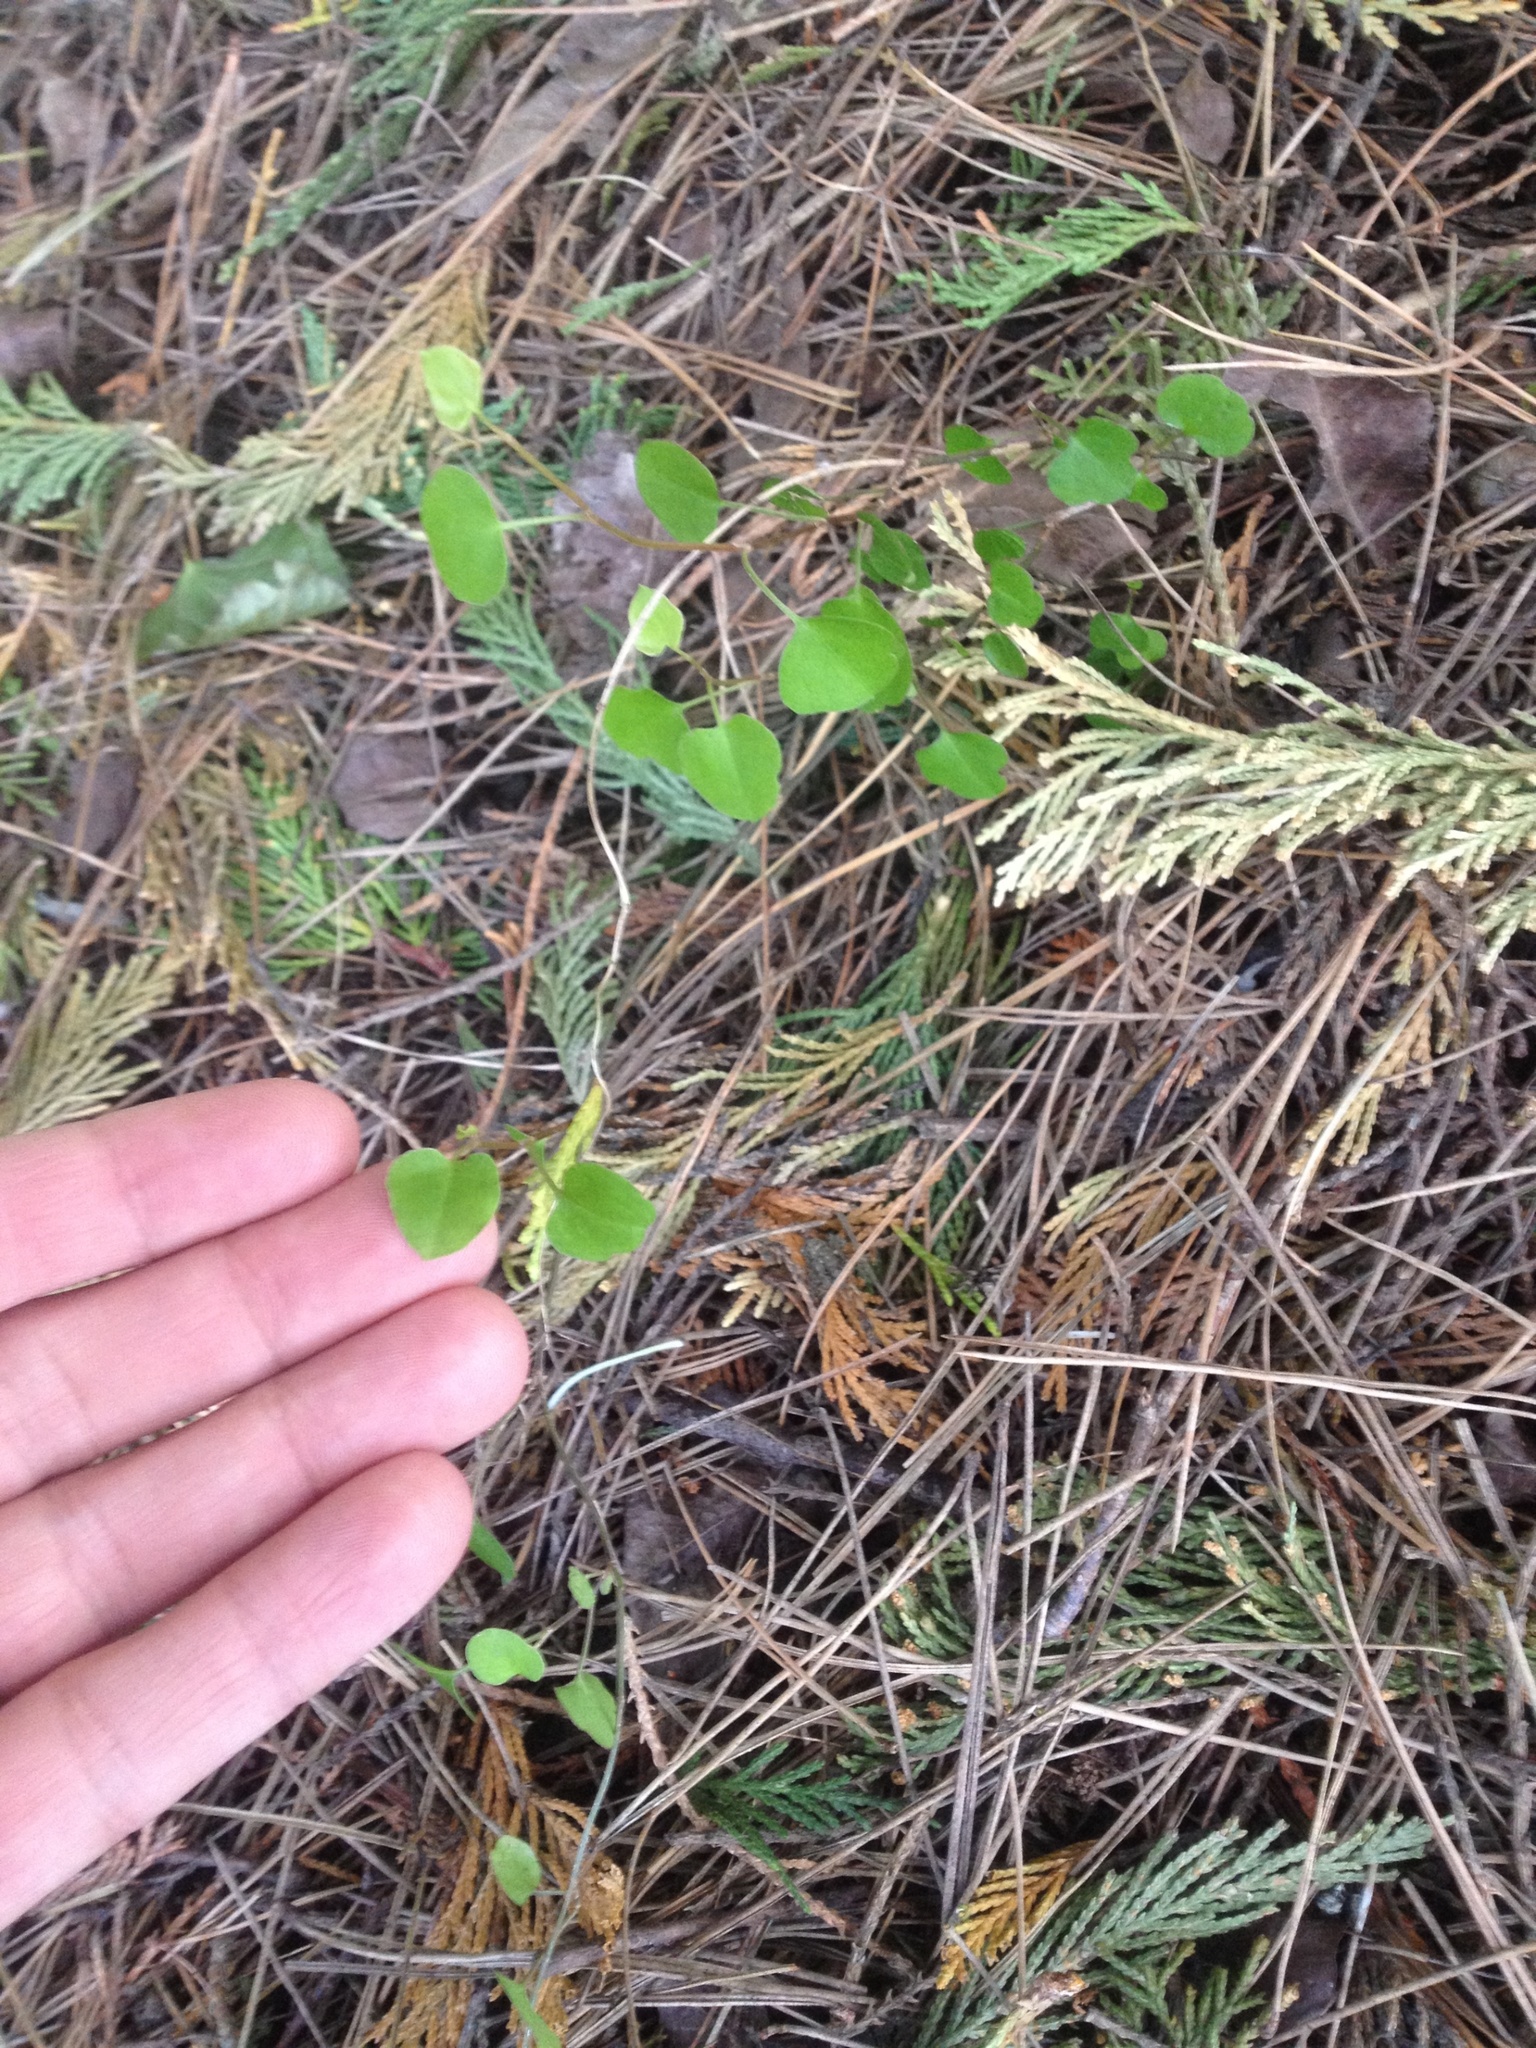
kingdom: Plantae
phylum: Tracheophyta
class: Magnoliopsida
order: Caryophyllales
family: Polygonaceae
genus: Muehlenbeckia
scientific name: Muehlenbeckia australis
